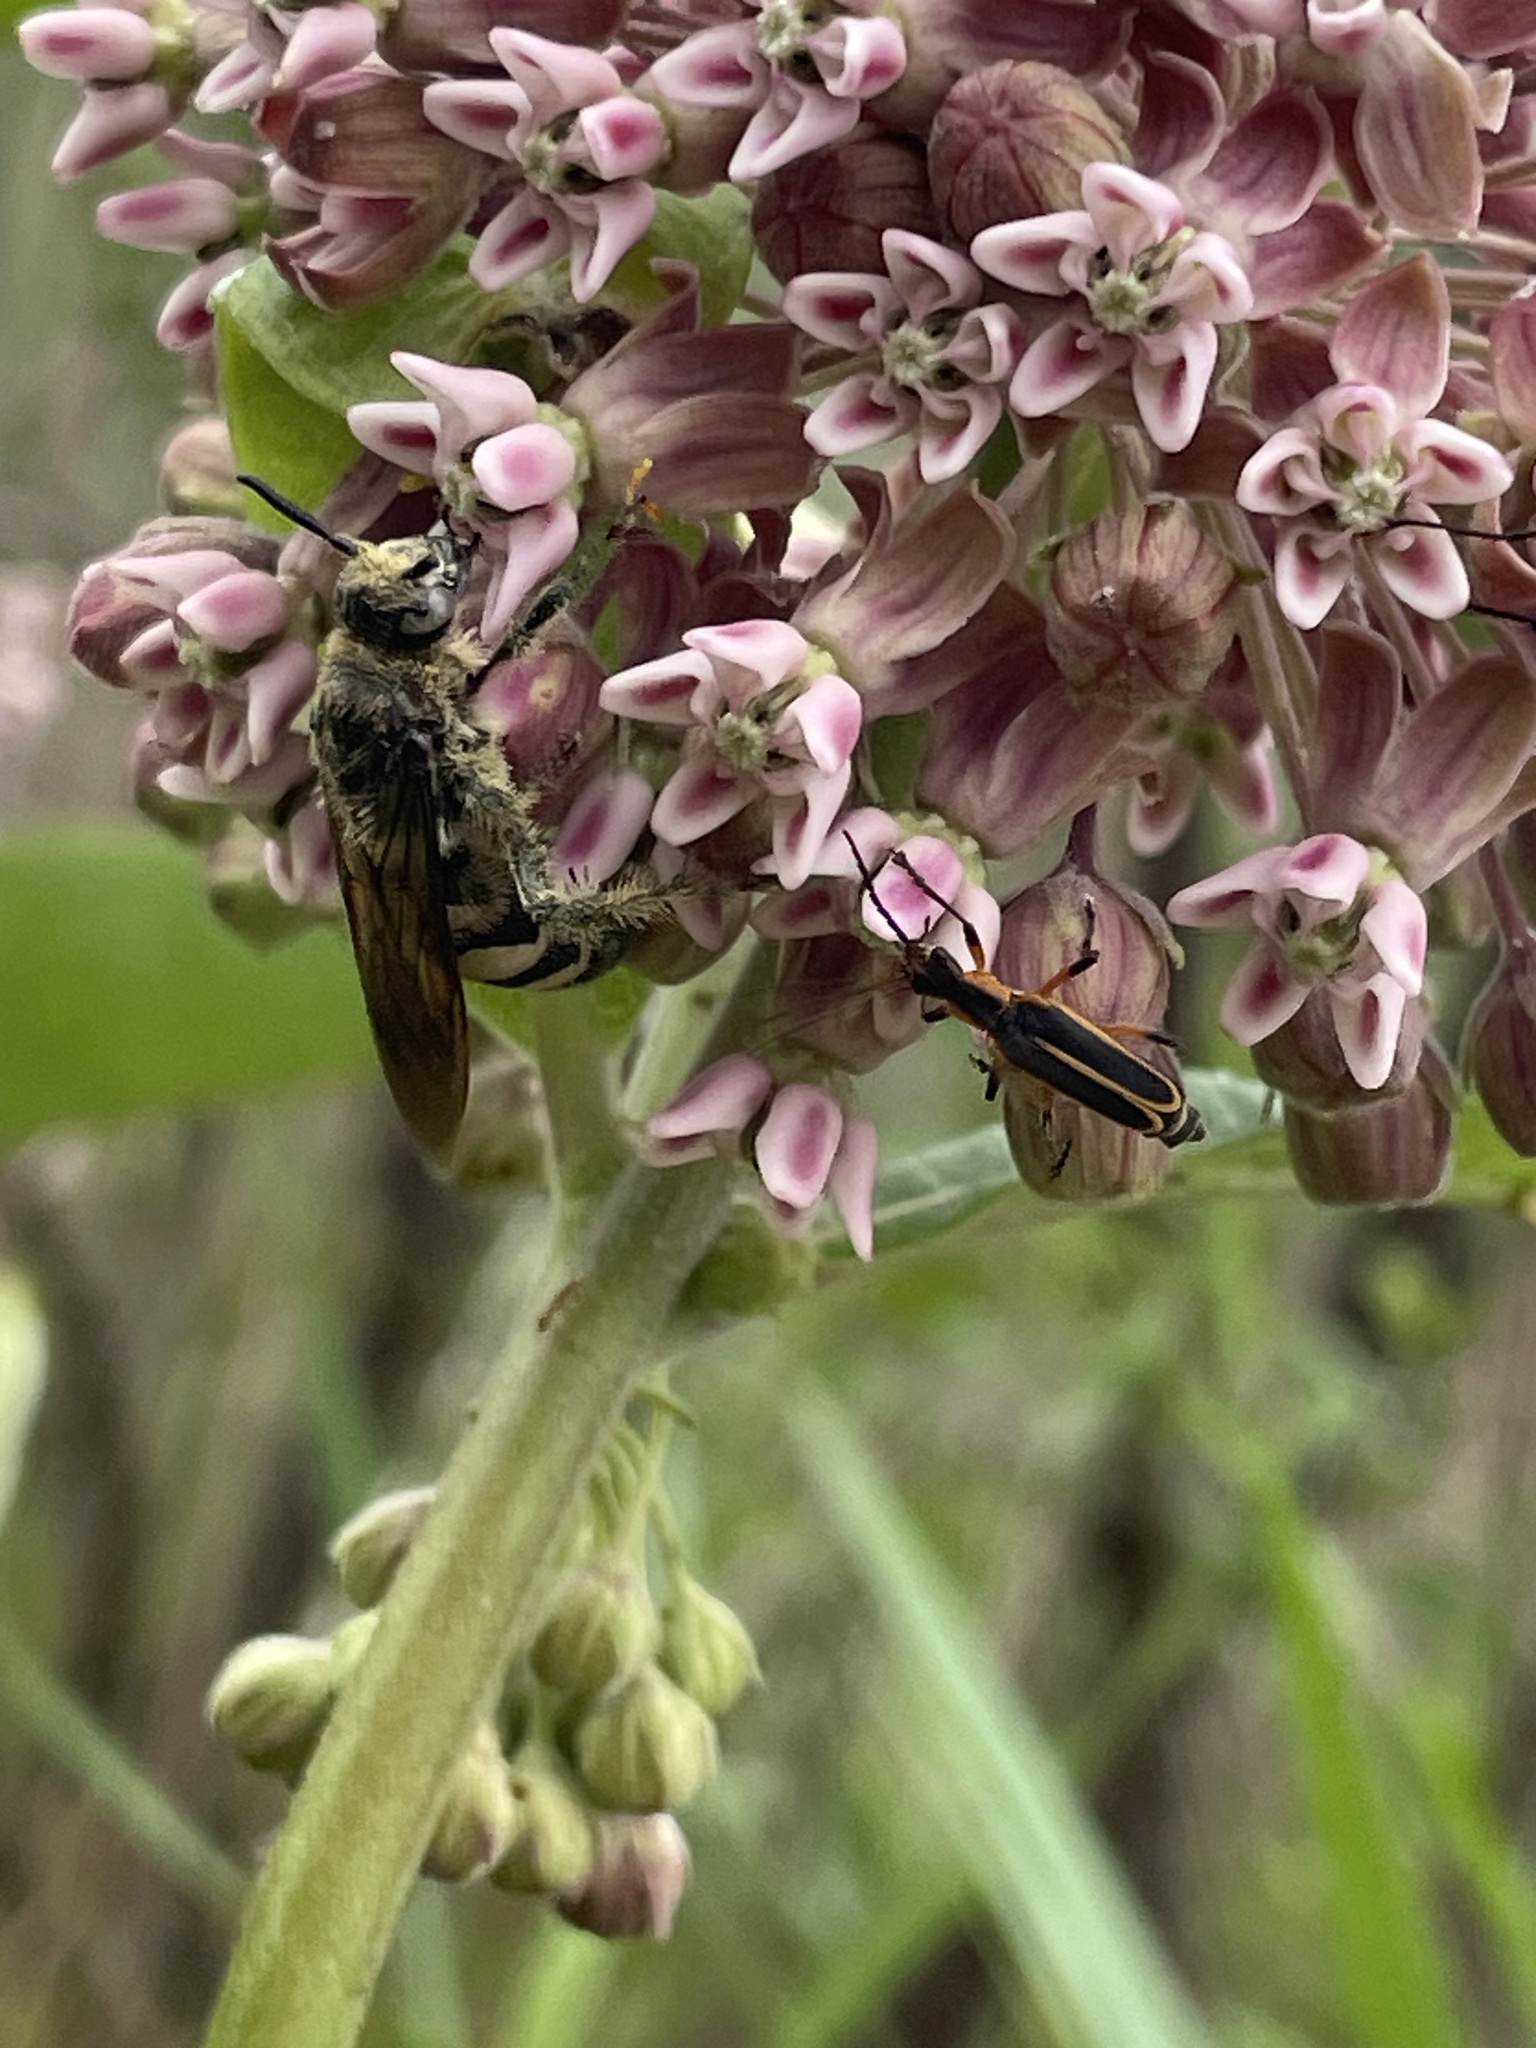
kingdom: Animalia
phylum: Arthropoda
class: Insecta
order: Coleoptera
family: Cantharidae
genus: Chauliognathus
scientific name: Chauliognathus marginatus
